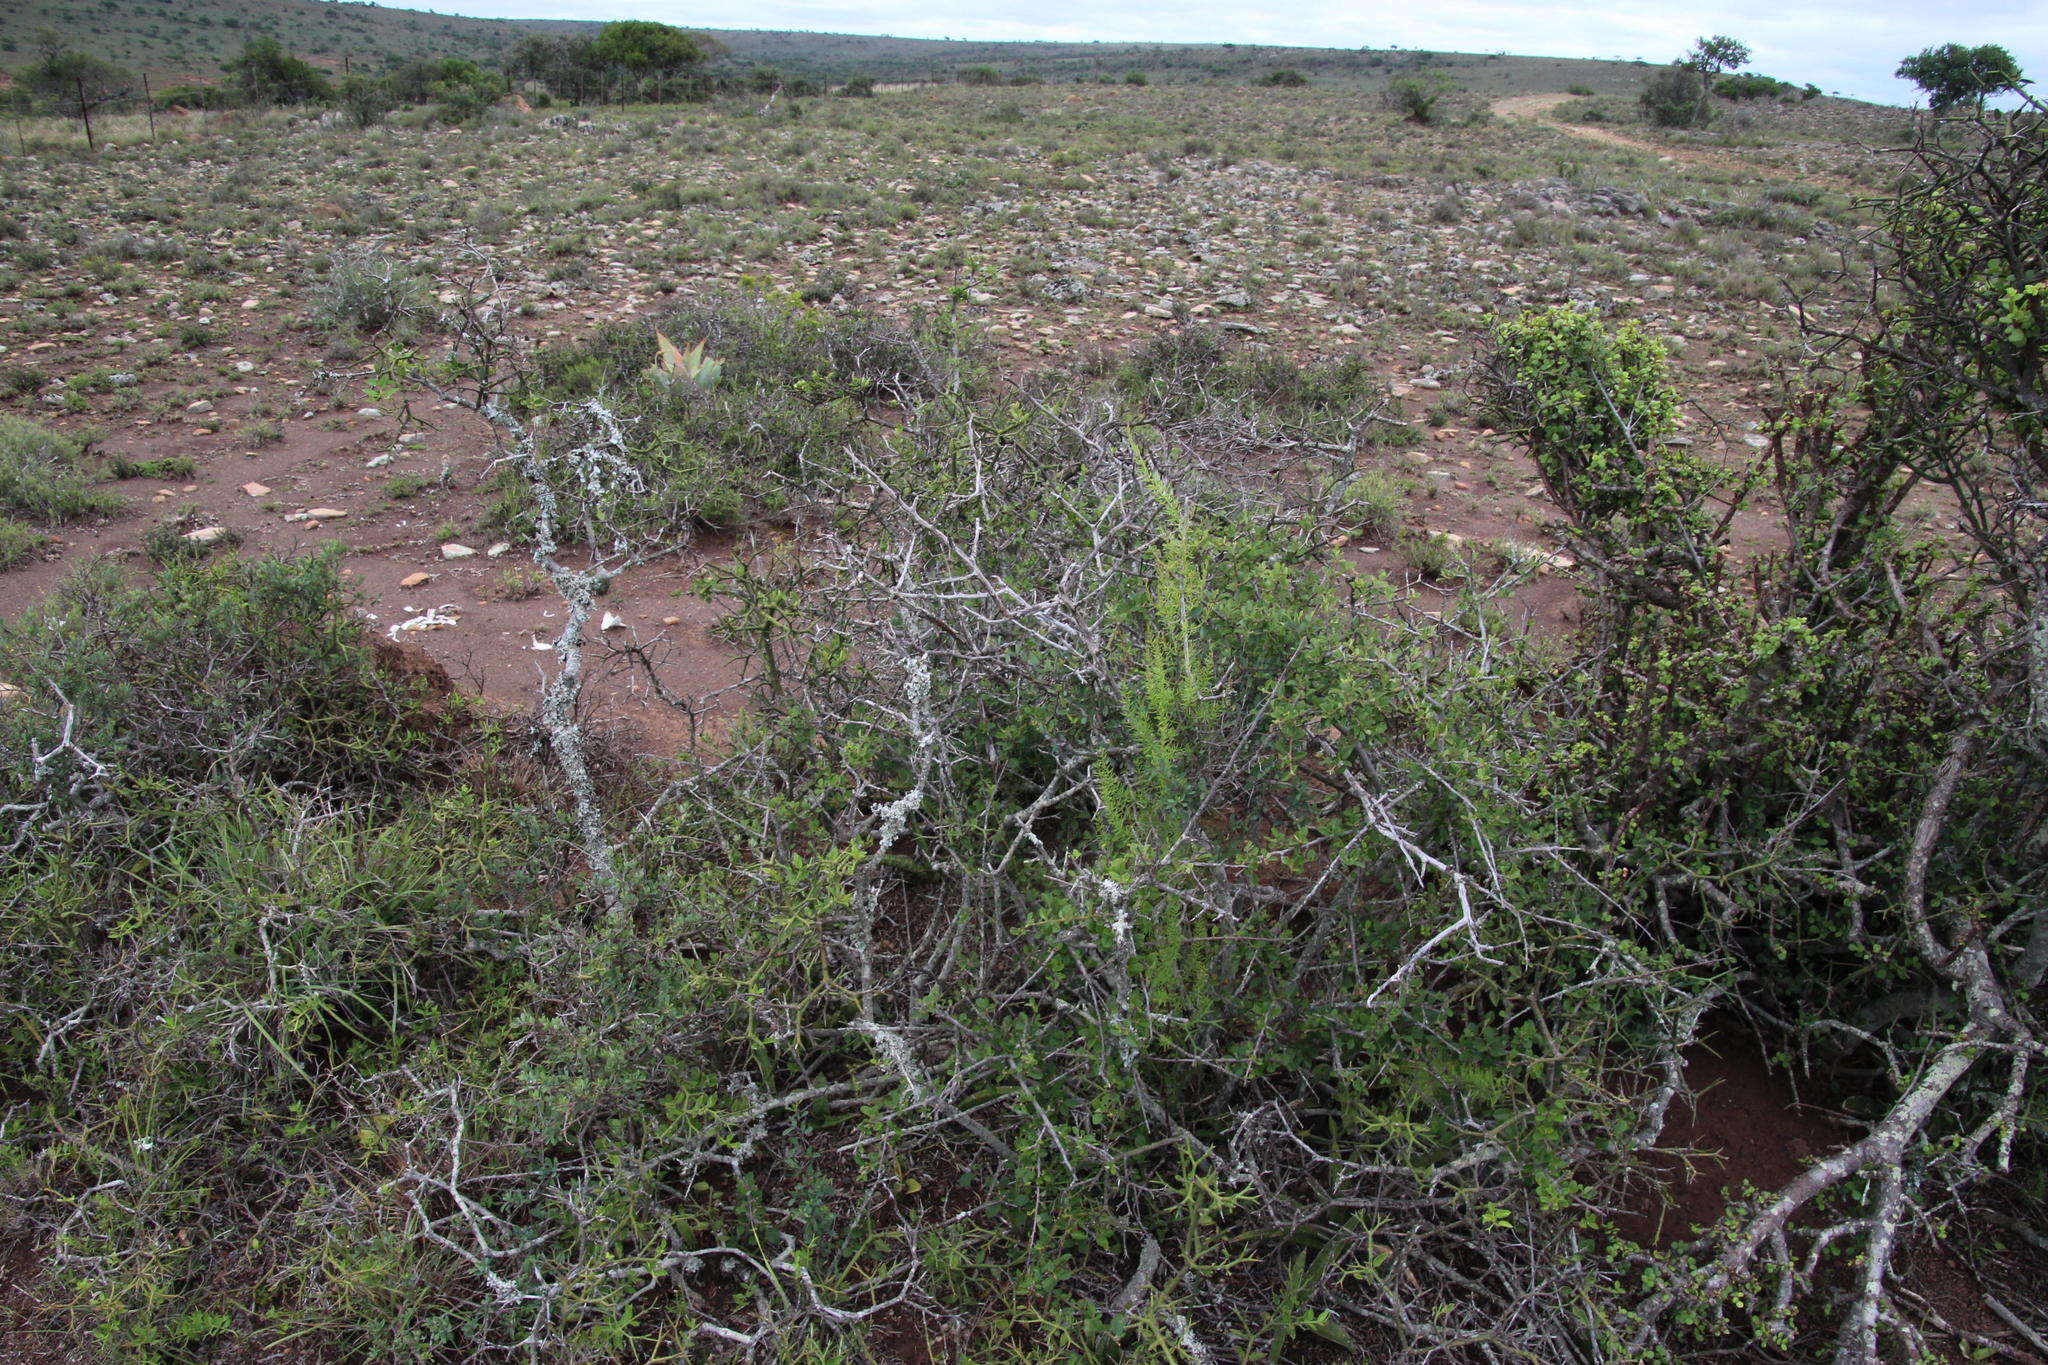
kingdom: Plantae
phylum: Tracheophyta
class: Magnoliopsida
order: Gentianales
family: Apocynaceae
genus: Carissa
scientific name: Carissa haematocarpa
